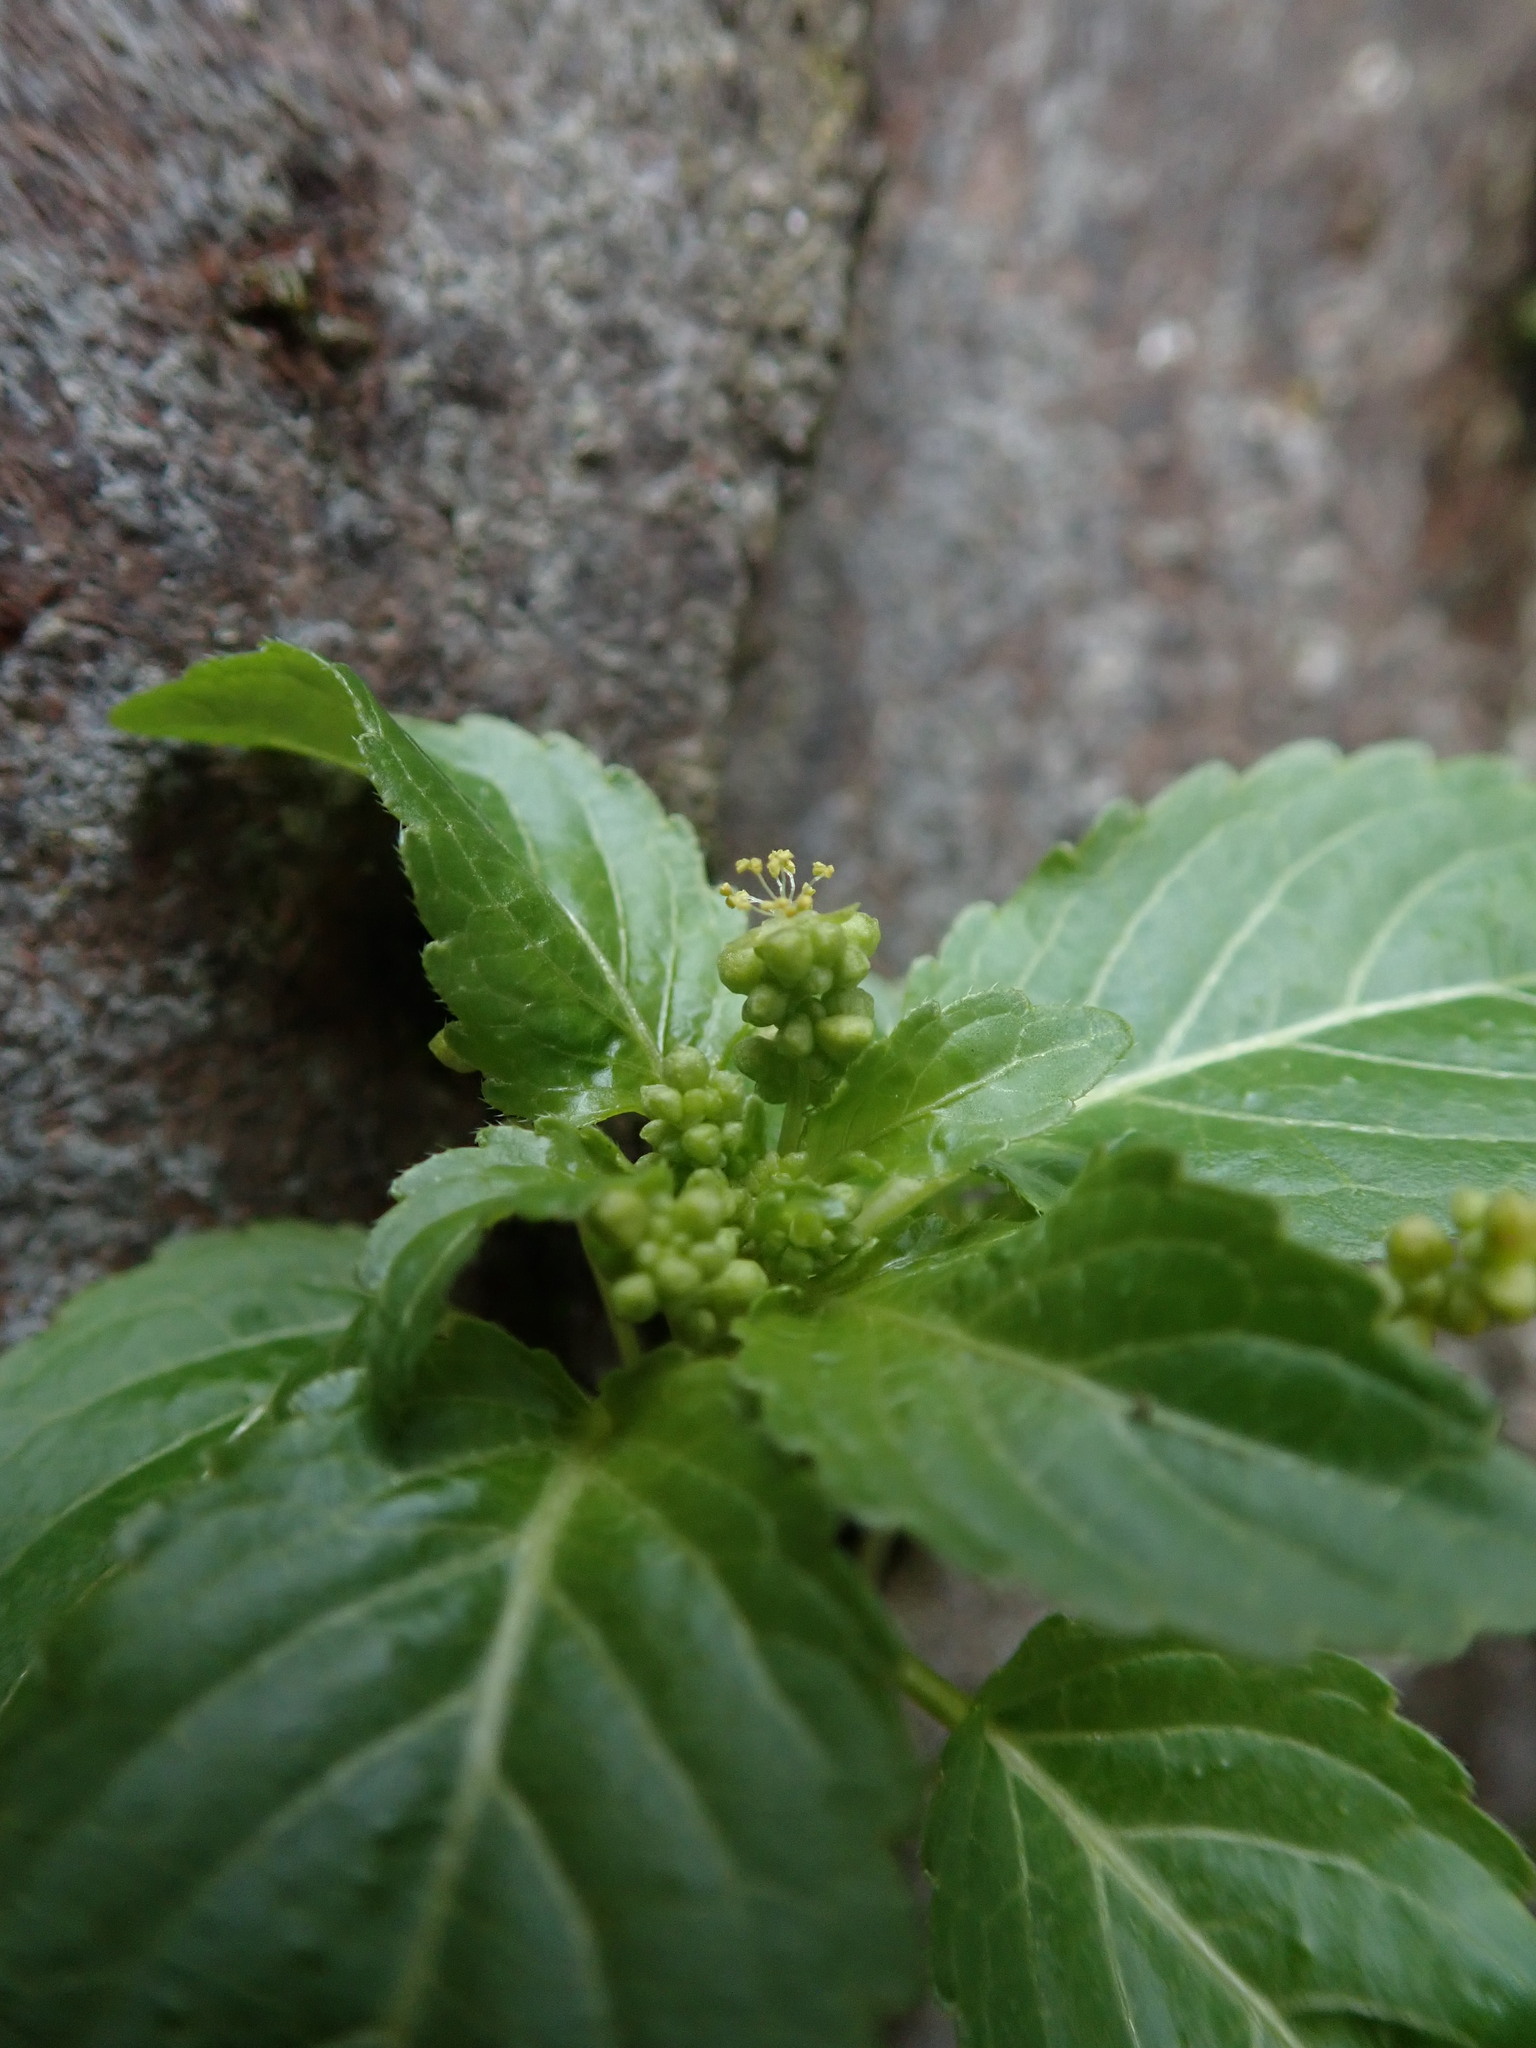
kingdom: Plantae
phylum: Tracheophyta
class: Magnoliopsida
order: Malpighiales
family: Euphorbiaceae
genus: Mercurialis
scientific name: Mercurialis annua
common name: Annual mercury
